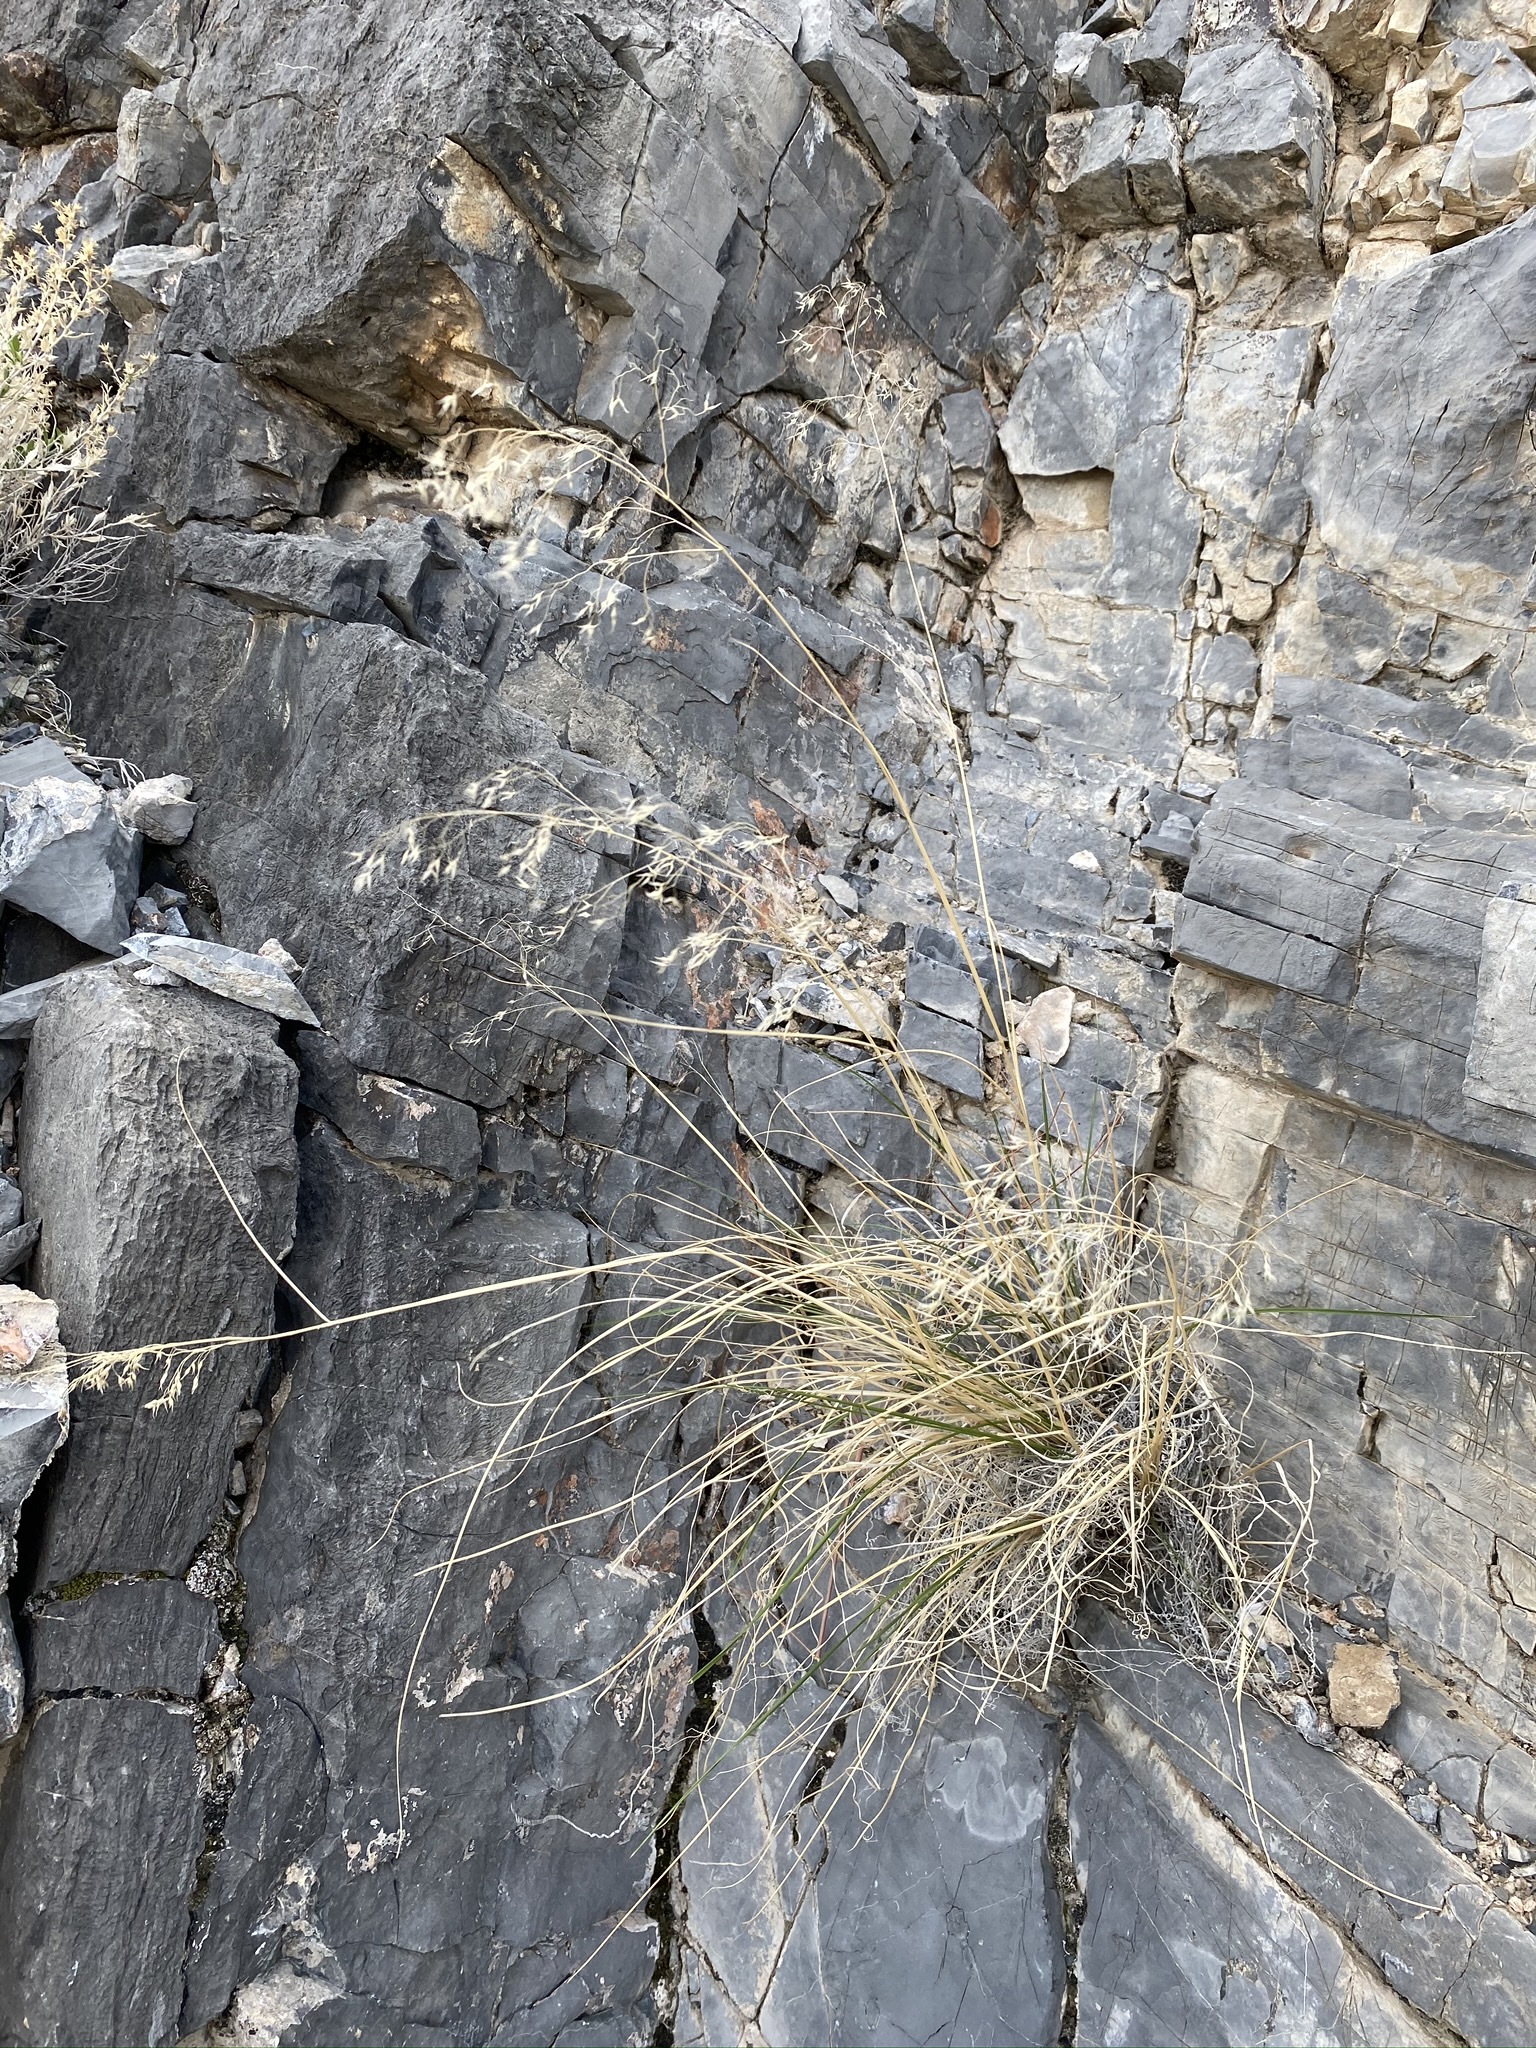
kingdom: Plantae
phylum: Tracheophyta
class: Liliopsida
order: Poales
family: Poaceae
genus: Eriocoma
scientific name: Eriocoma hymenoides
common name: Indian mountain ricegrass
